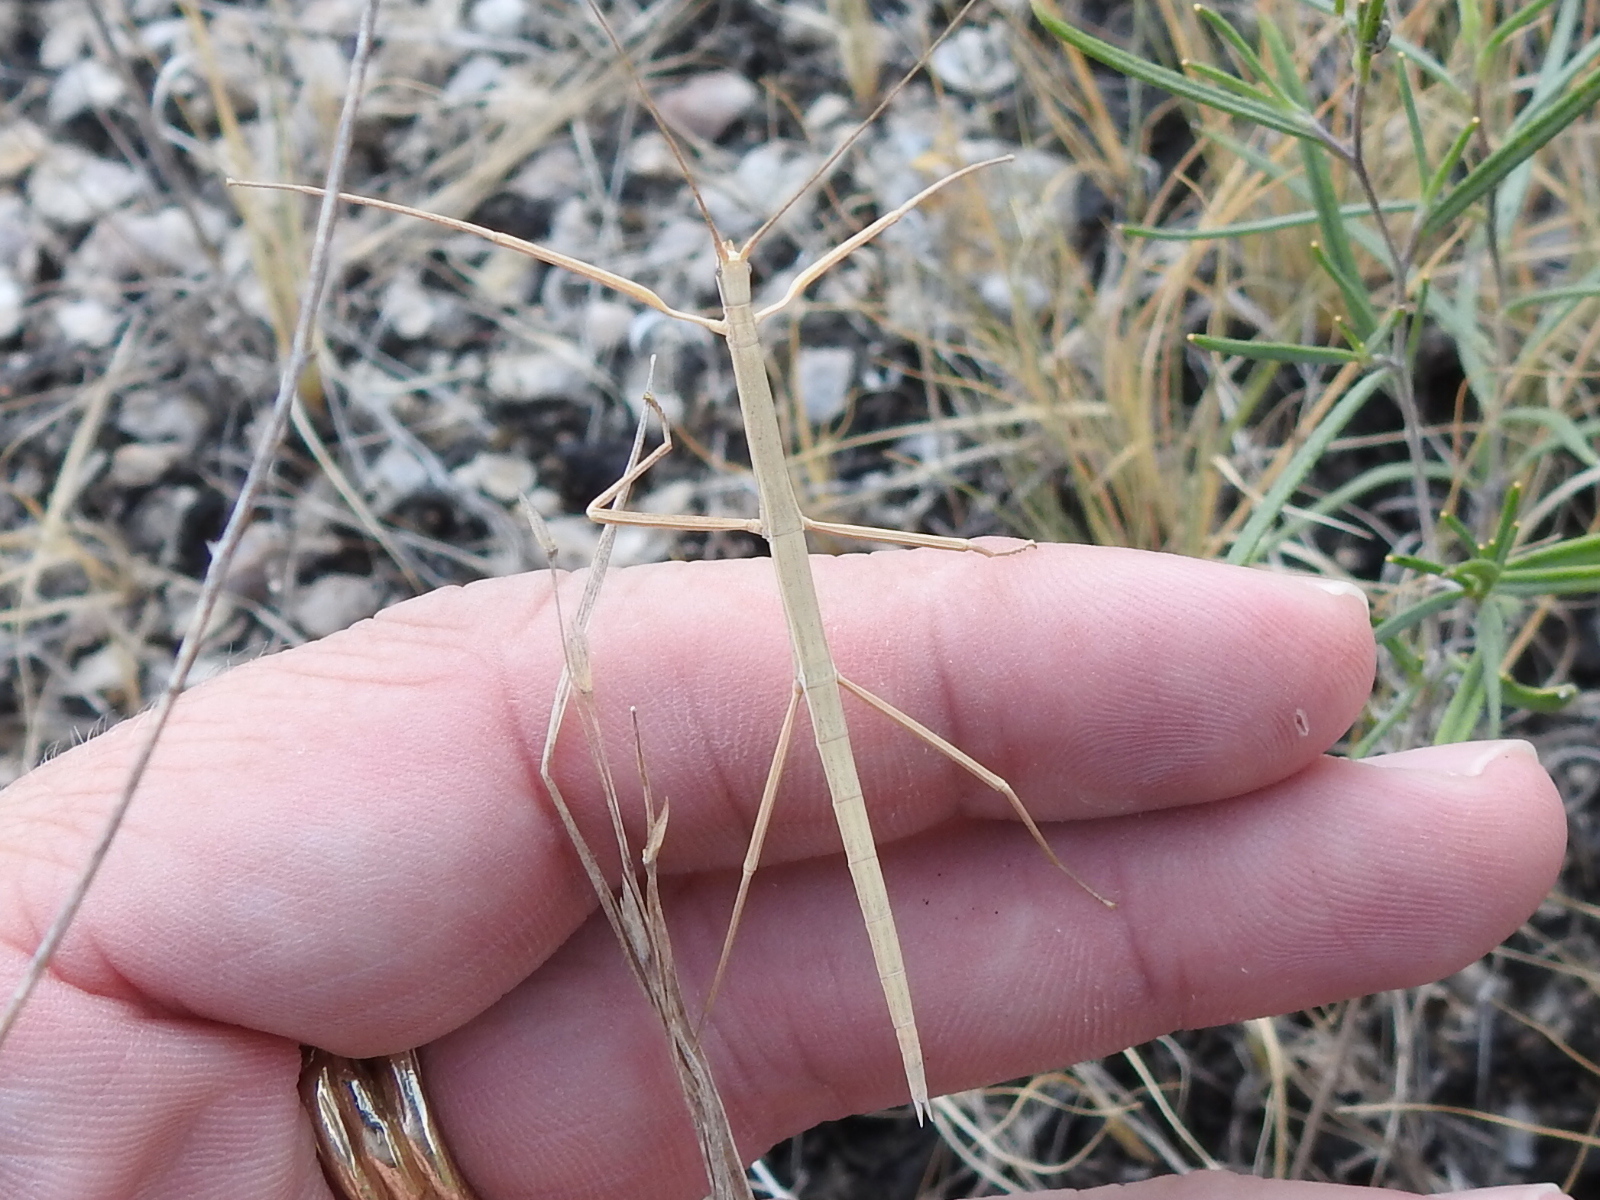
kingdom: Animalia
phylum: Arthropoda
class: Insecta
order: Phasmida
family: Diapheromeridae
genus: Manomera
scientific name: Manomera blatchleyi
